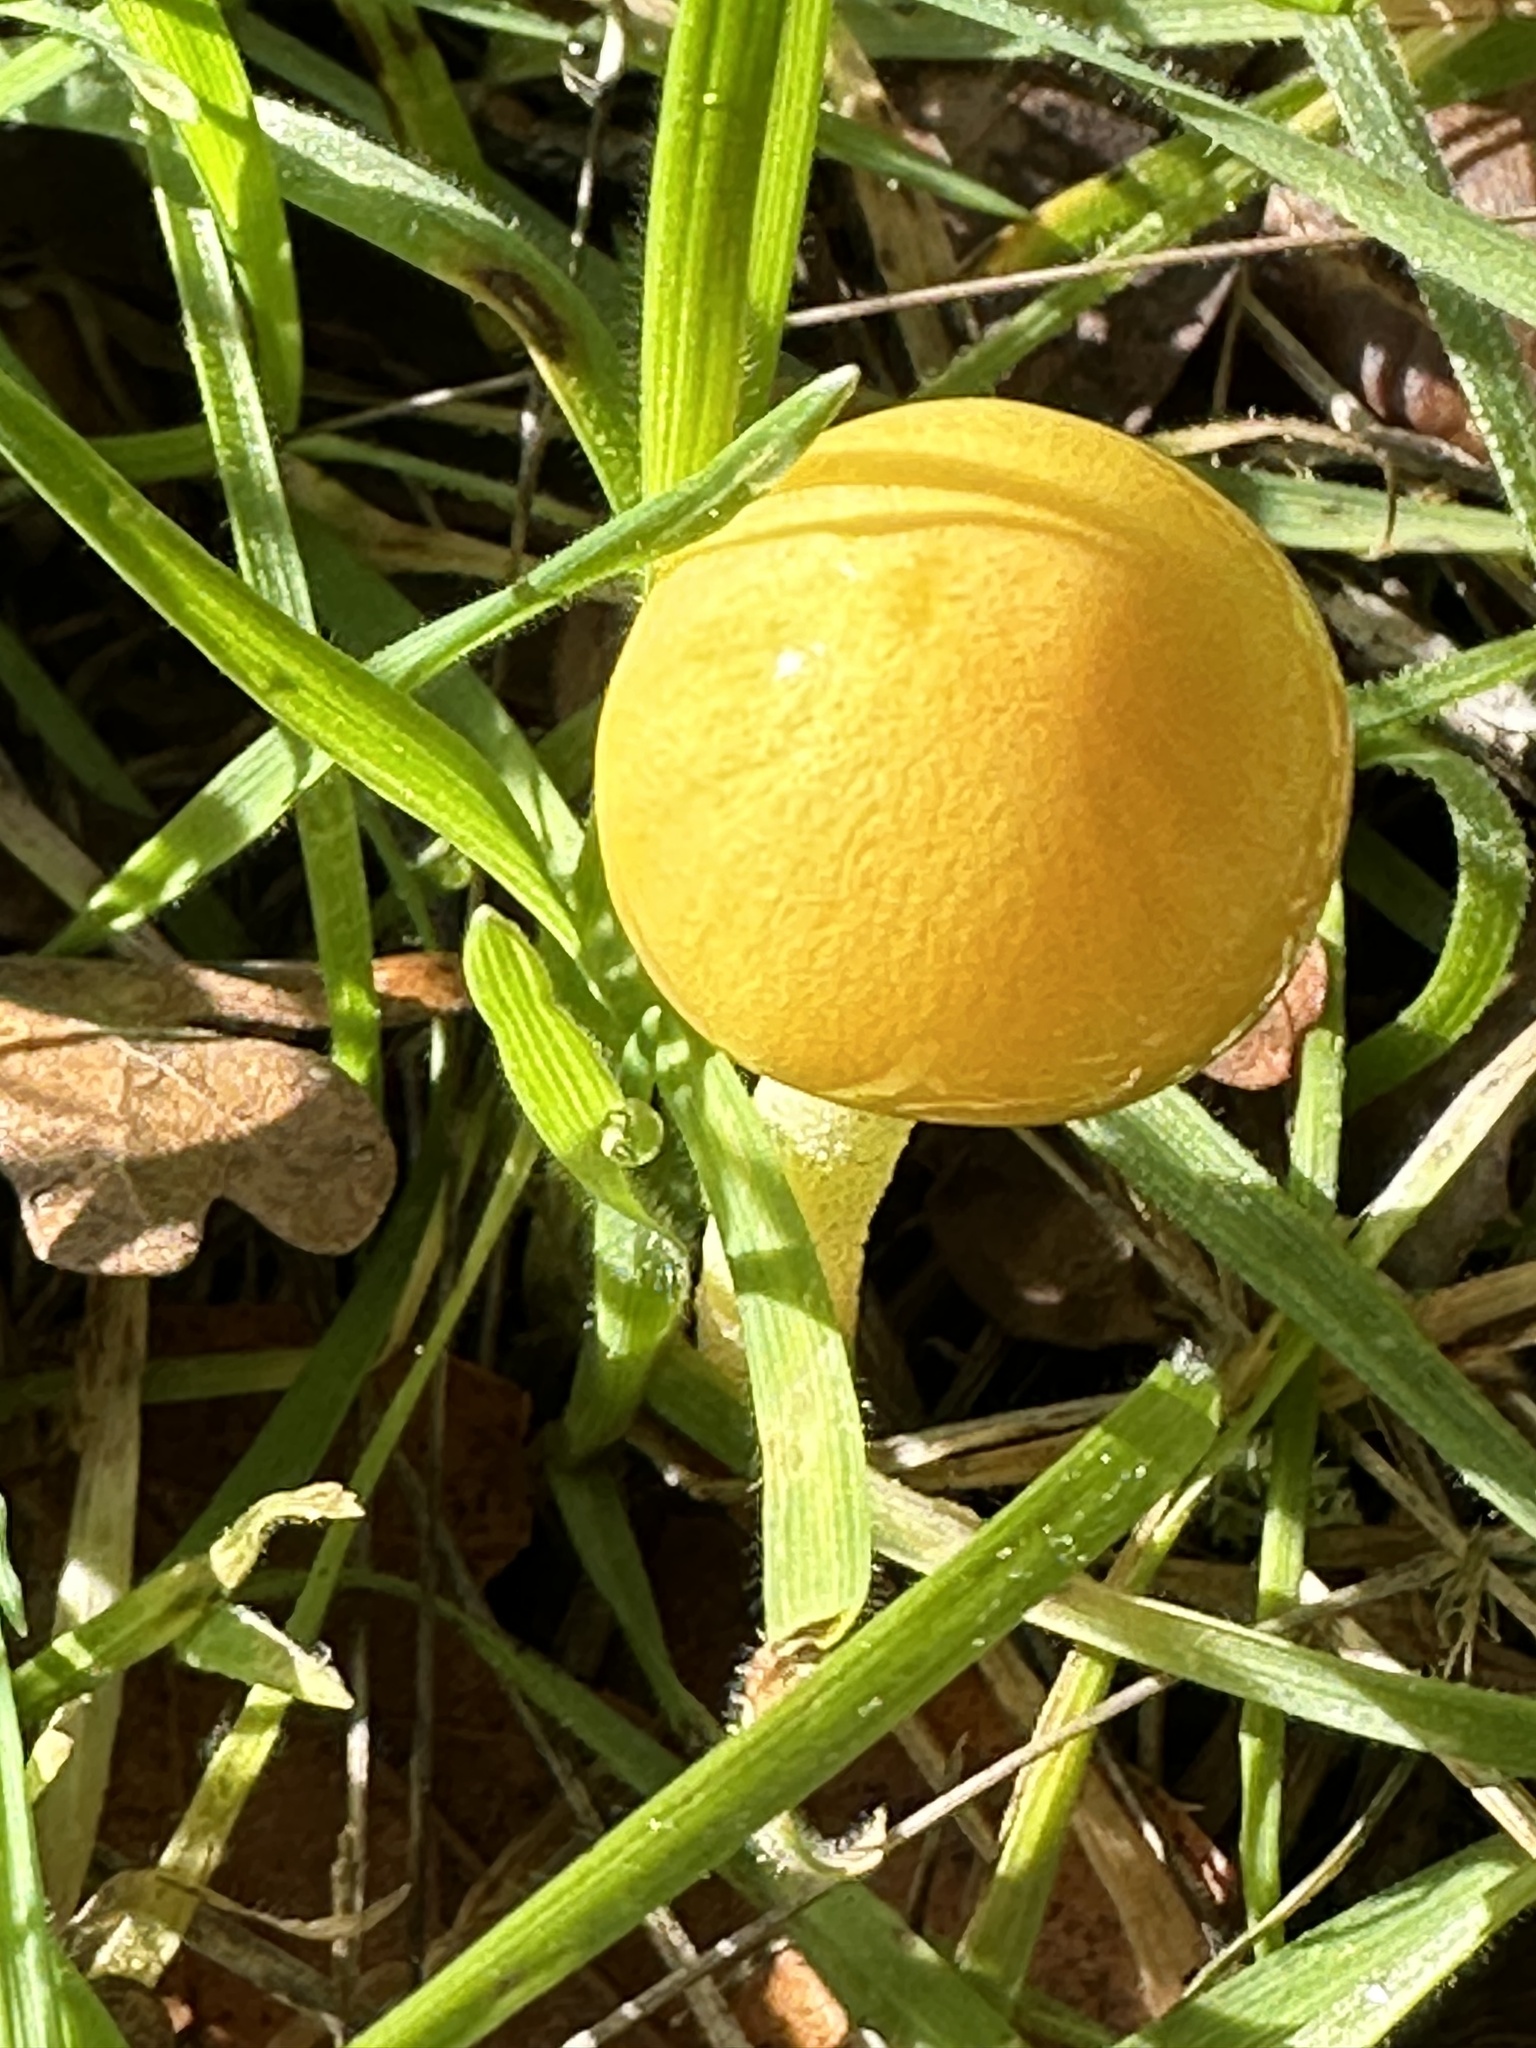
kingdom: Fungi
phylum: Basidiomycota
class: Agaricomycetes
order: Agaricales
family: Bolbitiaceae
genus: Bolbitius
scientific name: Bolbitius titubans
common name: Yellow fieldcap
